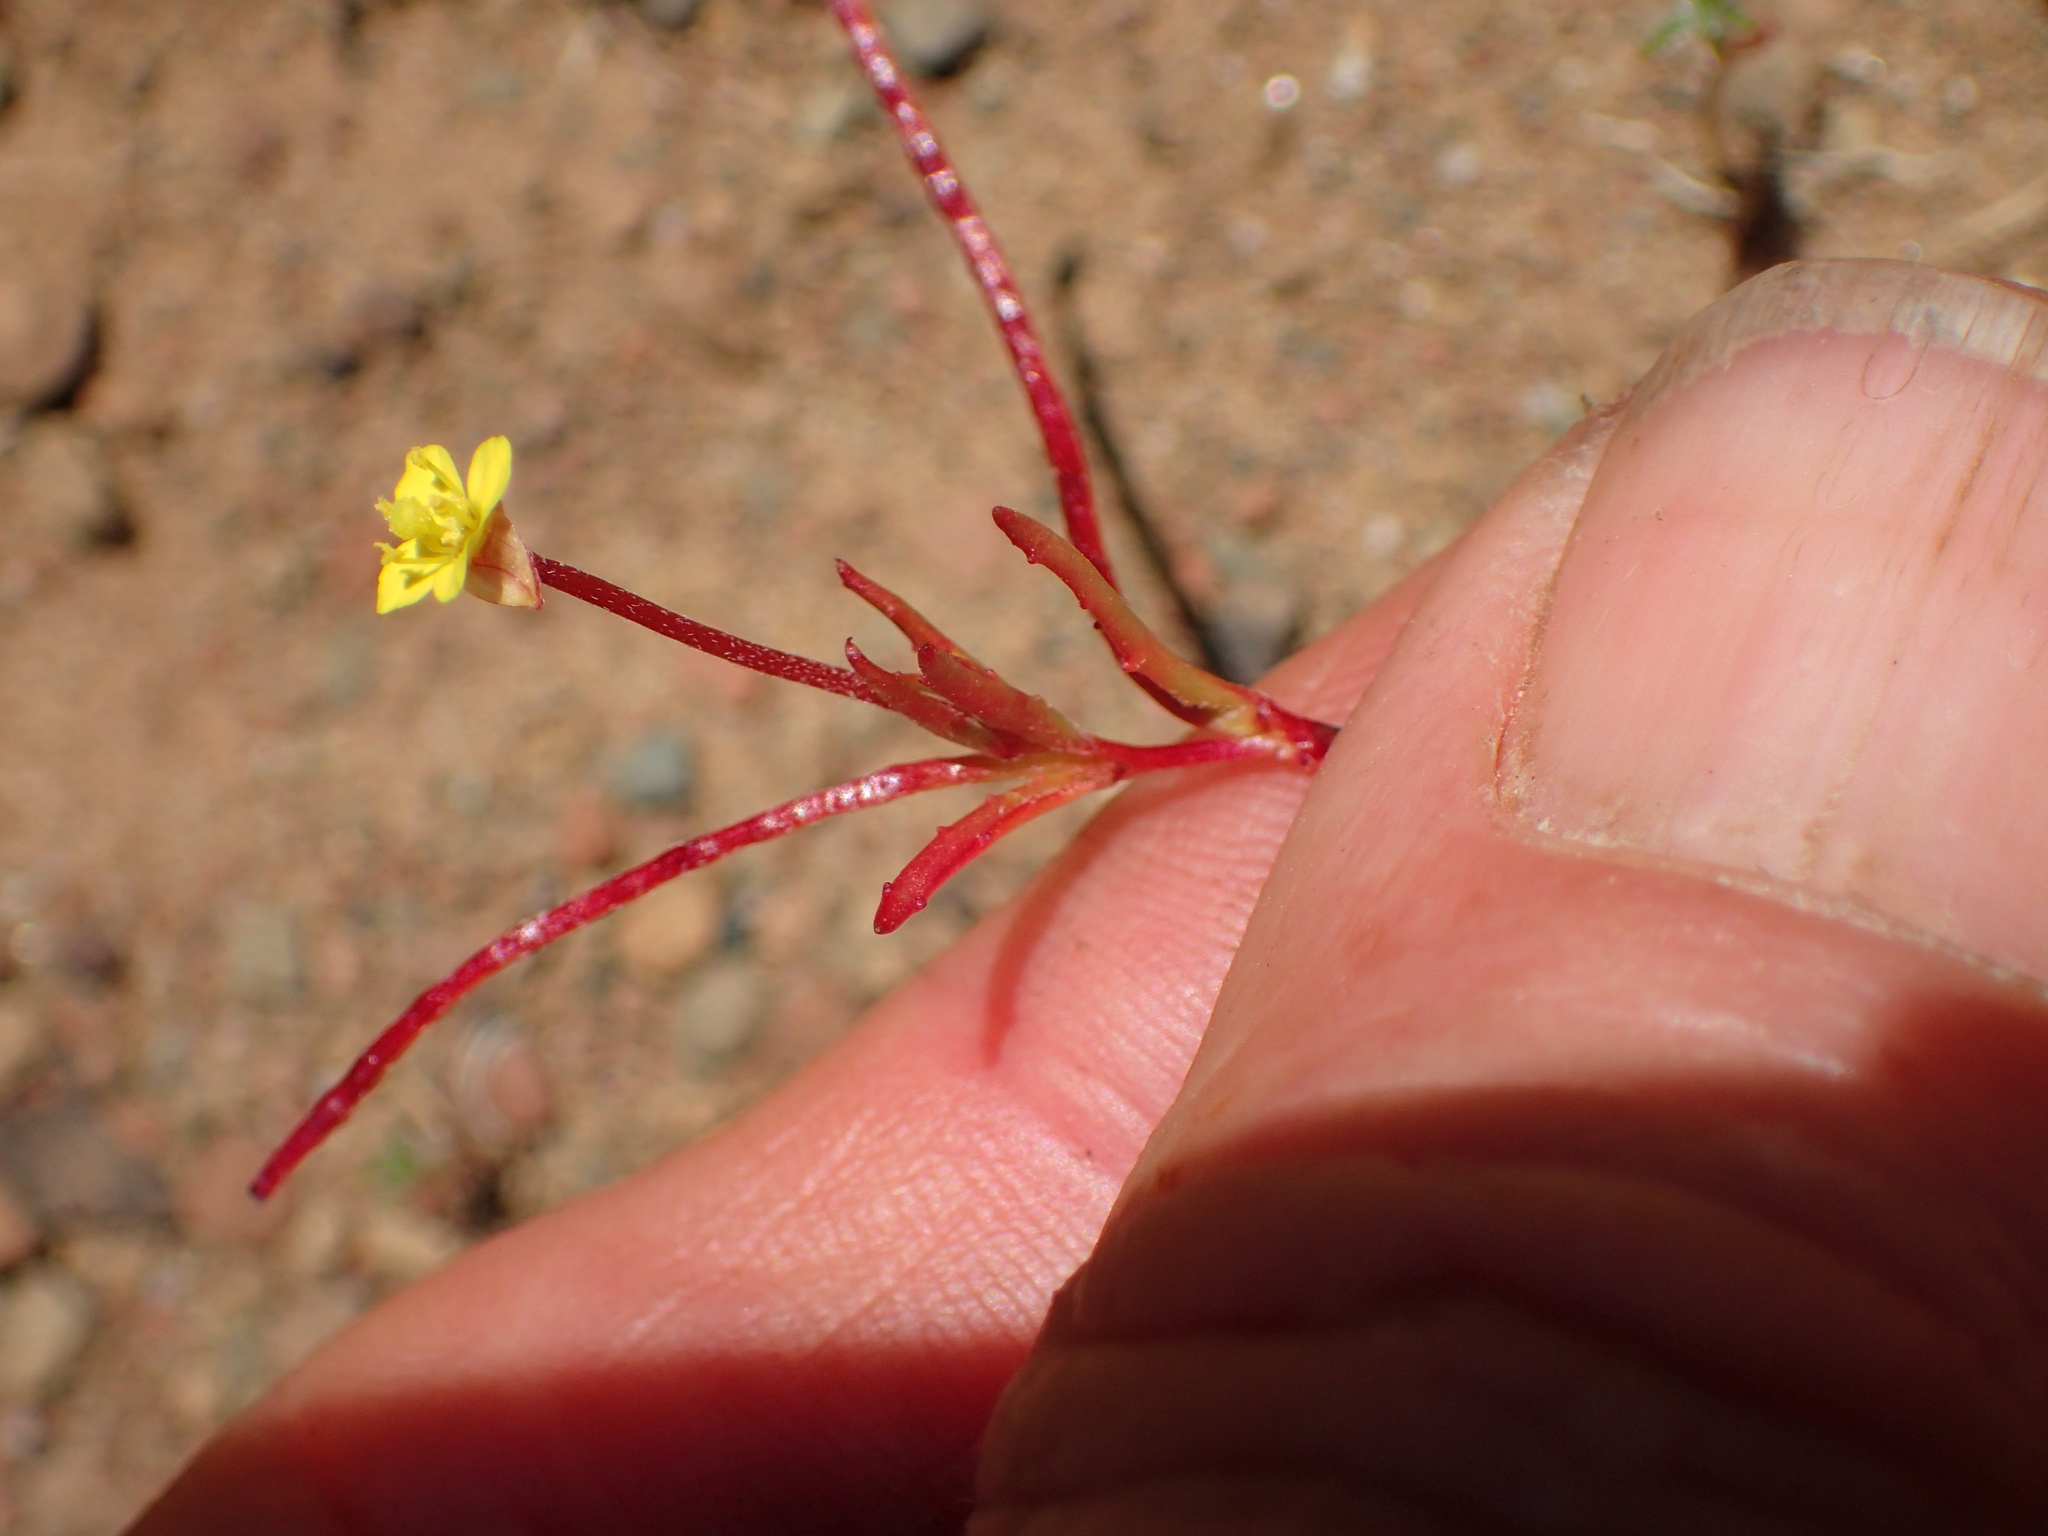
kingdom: Plantae
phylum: Tracheophyta
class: Magnoliopsida
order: Myrtales
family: Onagraceae
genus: Camissonia
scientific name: Camissonia contorta
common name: Contorted suncup
